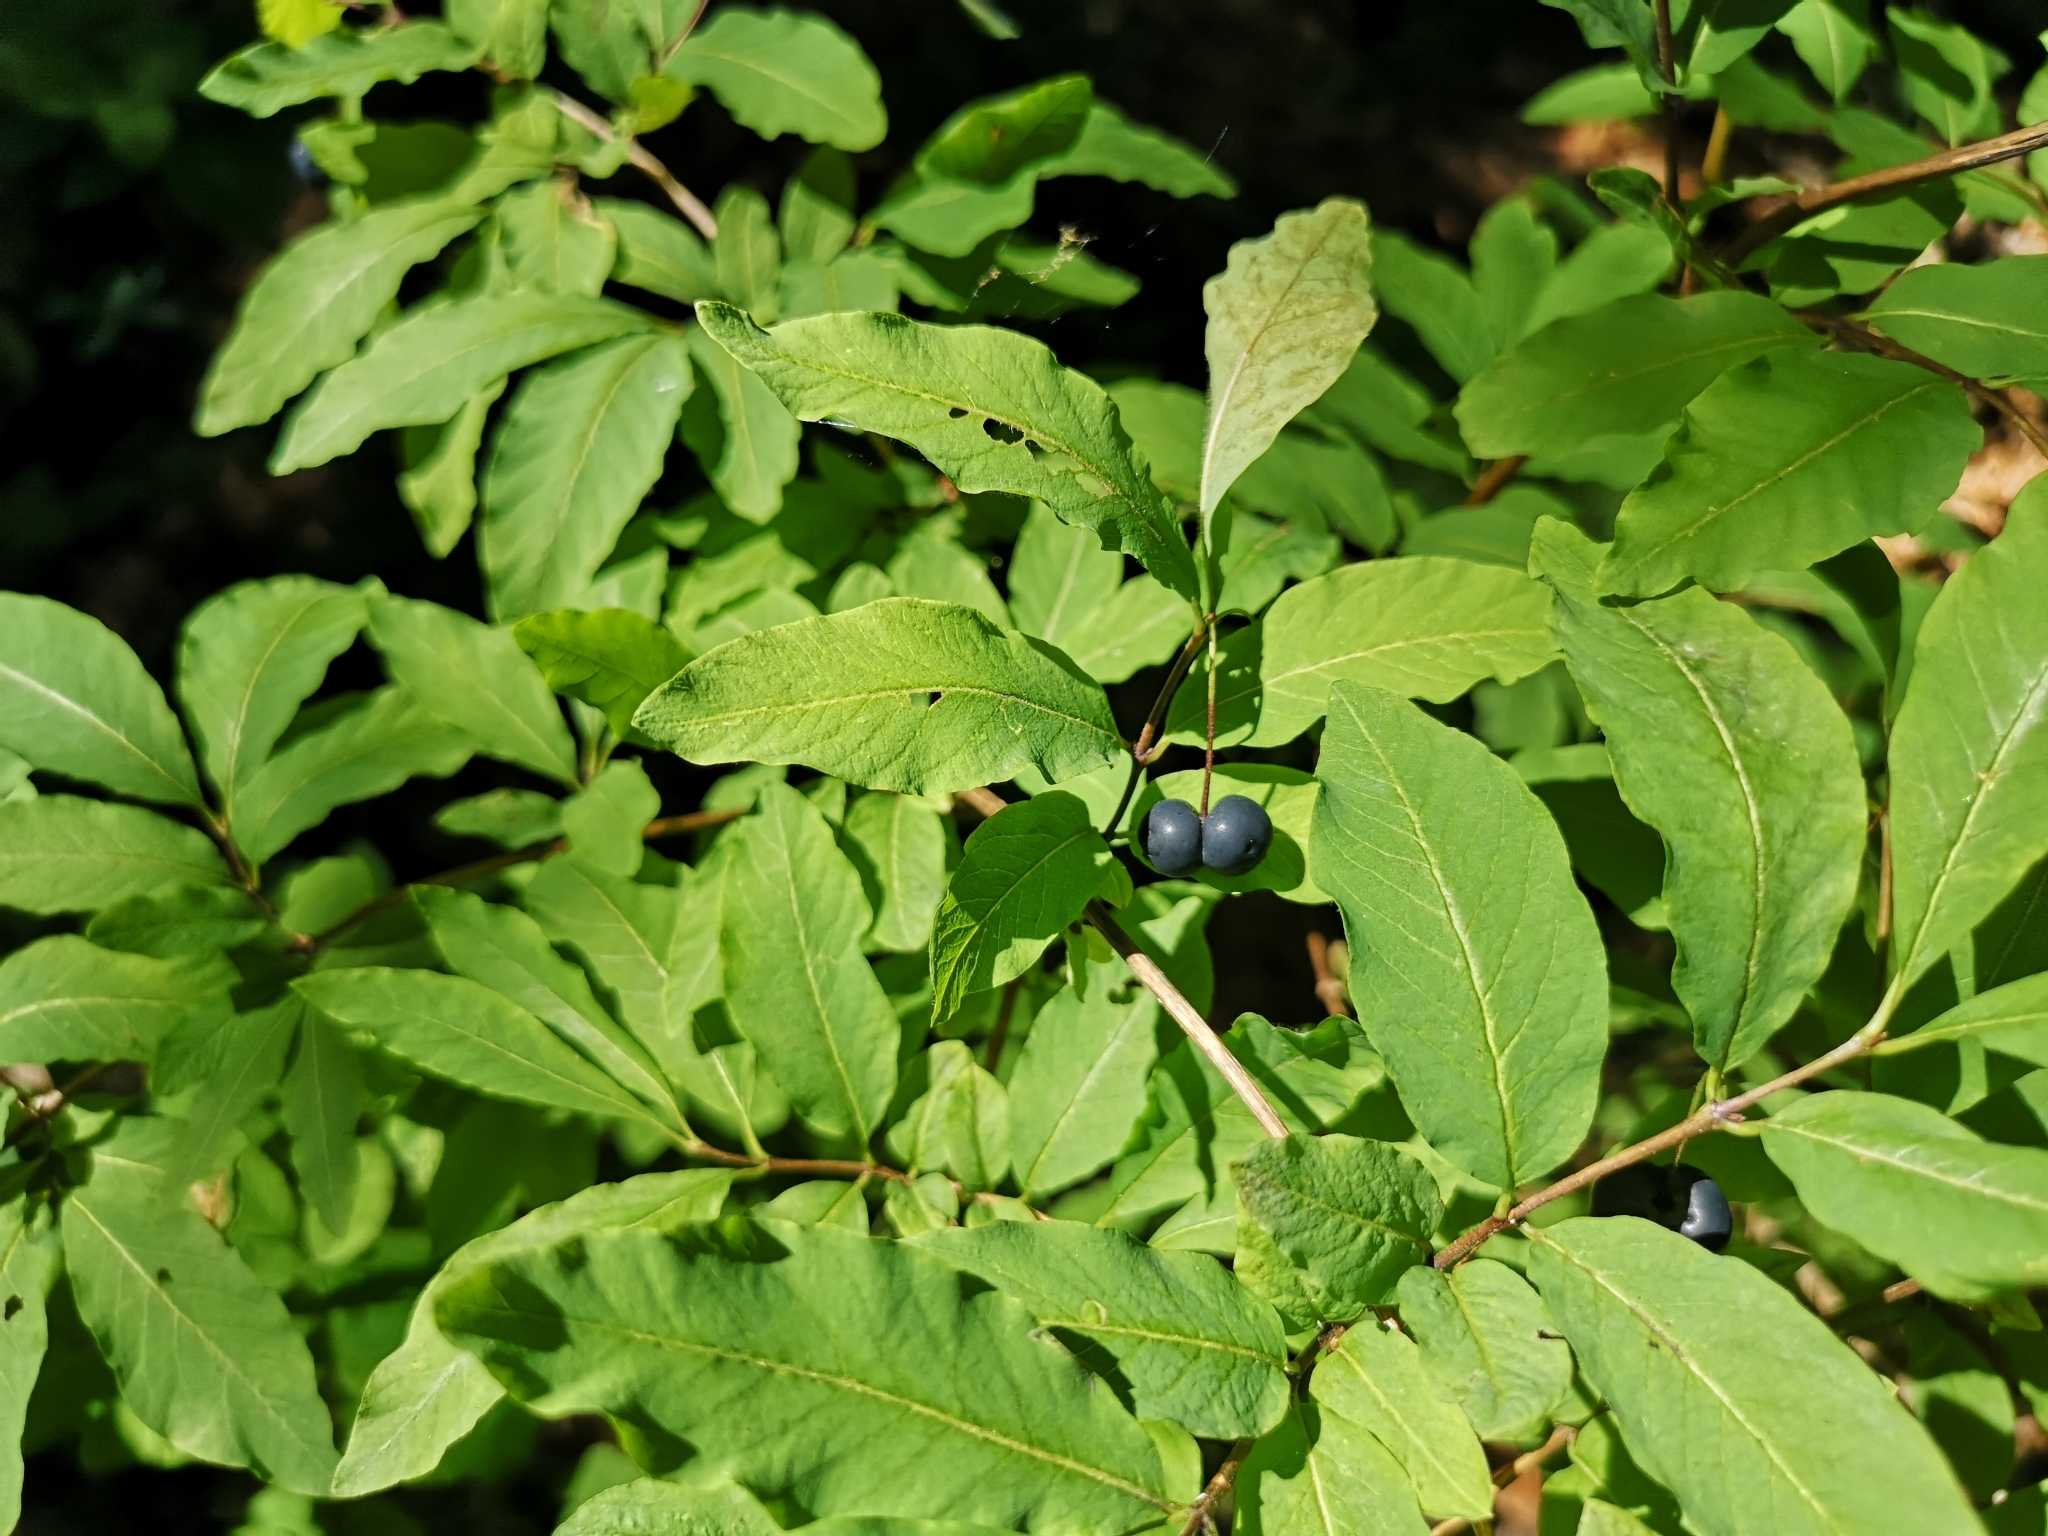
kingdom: Plantae
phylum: Tracheophyta
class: Magnoliopsida
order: Dipsacales
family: Caprifoliaceae
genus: Lonicera
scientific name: Lonicera nigra
